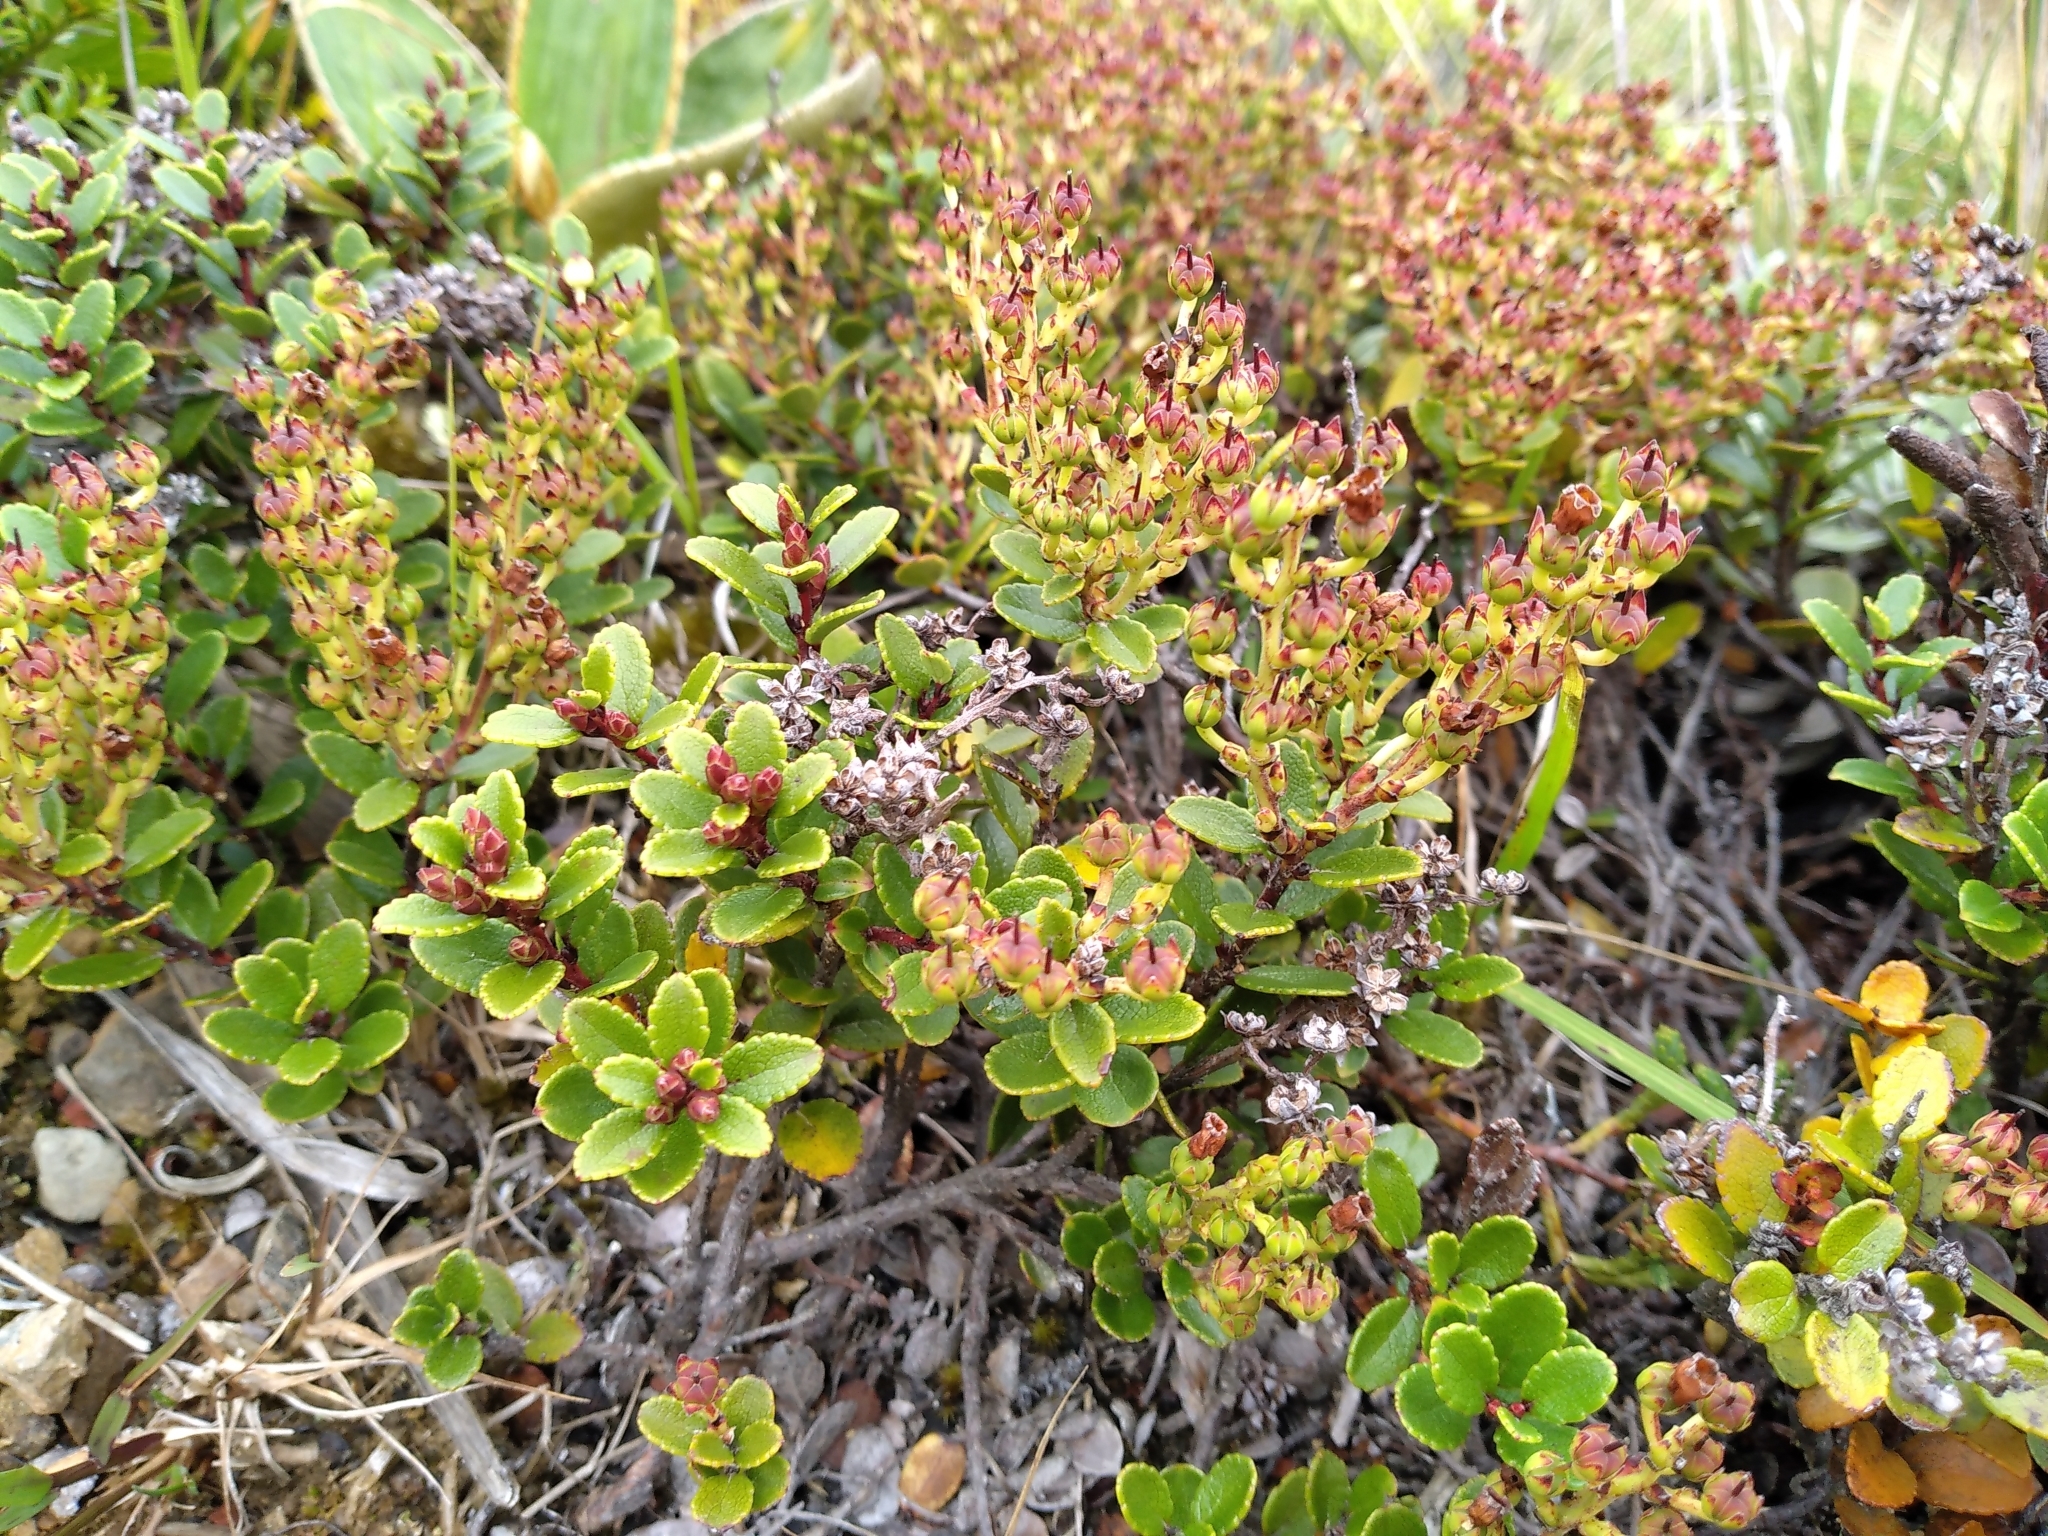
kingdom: Plantae
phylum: Tracheophyta
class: Magnoliopsida
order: Ericales
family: Ericaceae
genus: Gaultheria
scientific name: Gaultheria crassa
